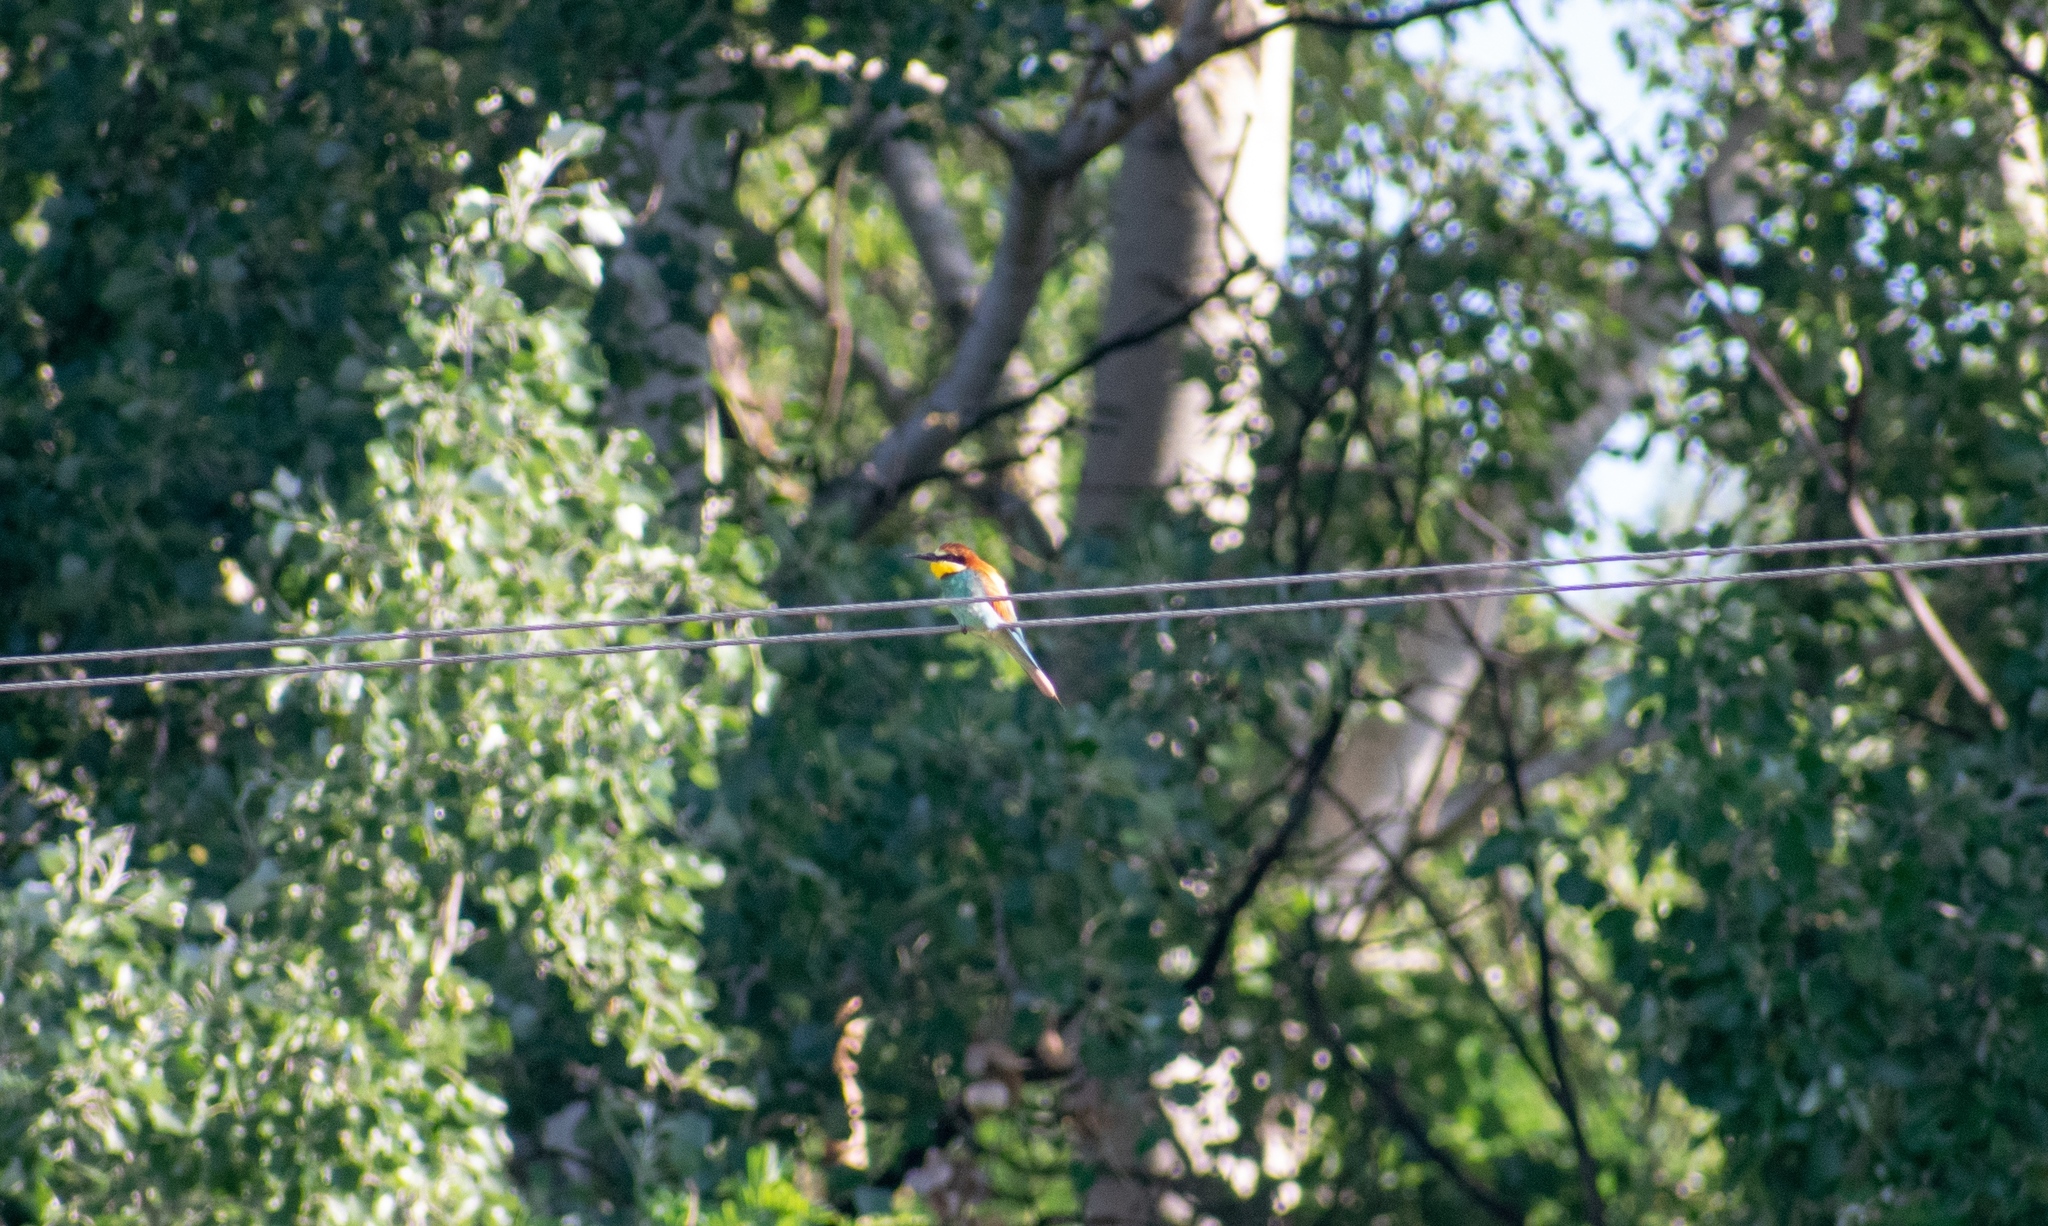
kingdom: Animalia
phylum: Chordata
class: Aves
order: Coraciiformes
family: Meropidae
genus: Merops
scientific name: Merops apiaster
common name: European bee-eater
